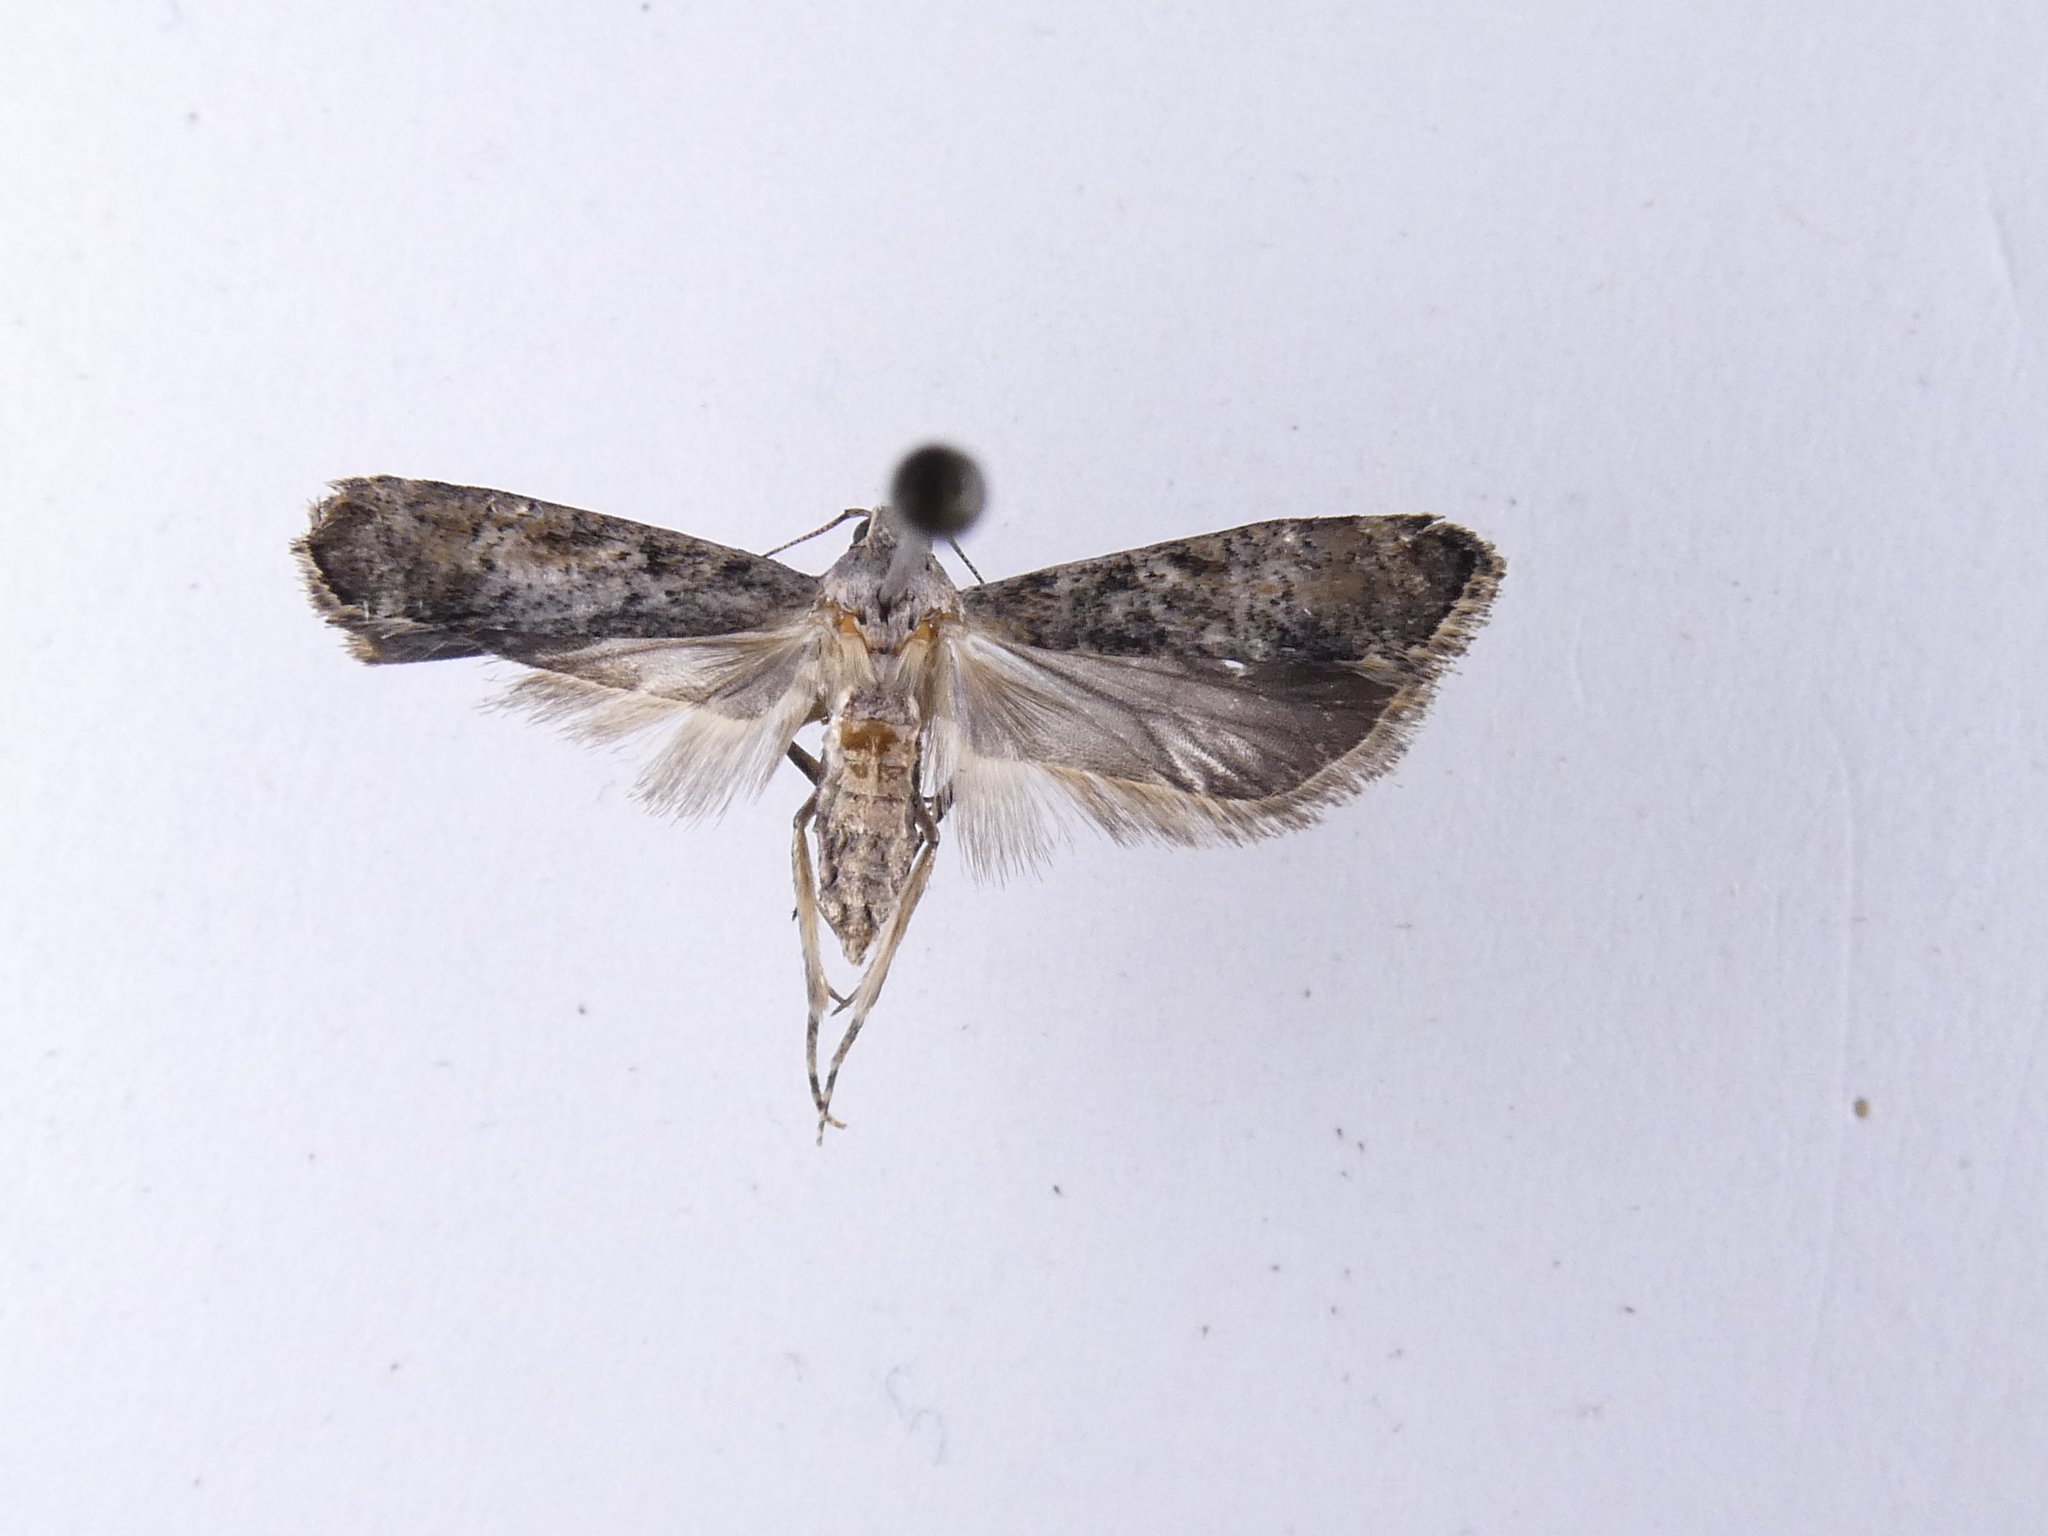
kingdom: Animalia
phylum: Arthropoda
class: Insecta
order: Lepidoptera
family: Gelechiidae
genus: Anisoplaca
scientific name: Anisoplaca achyrota
